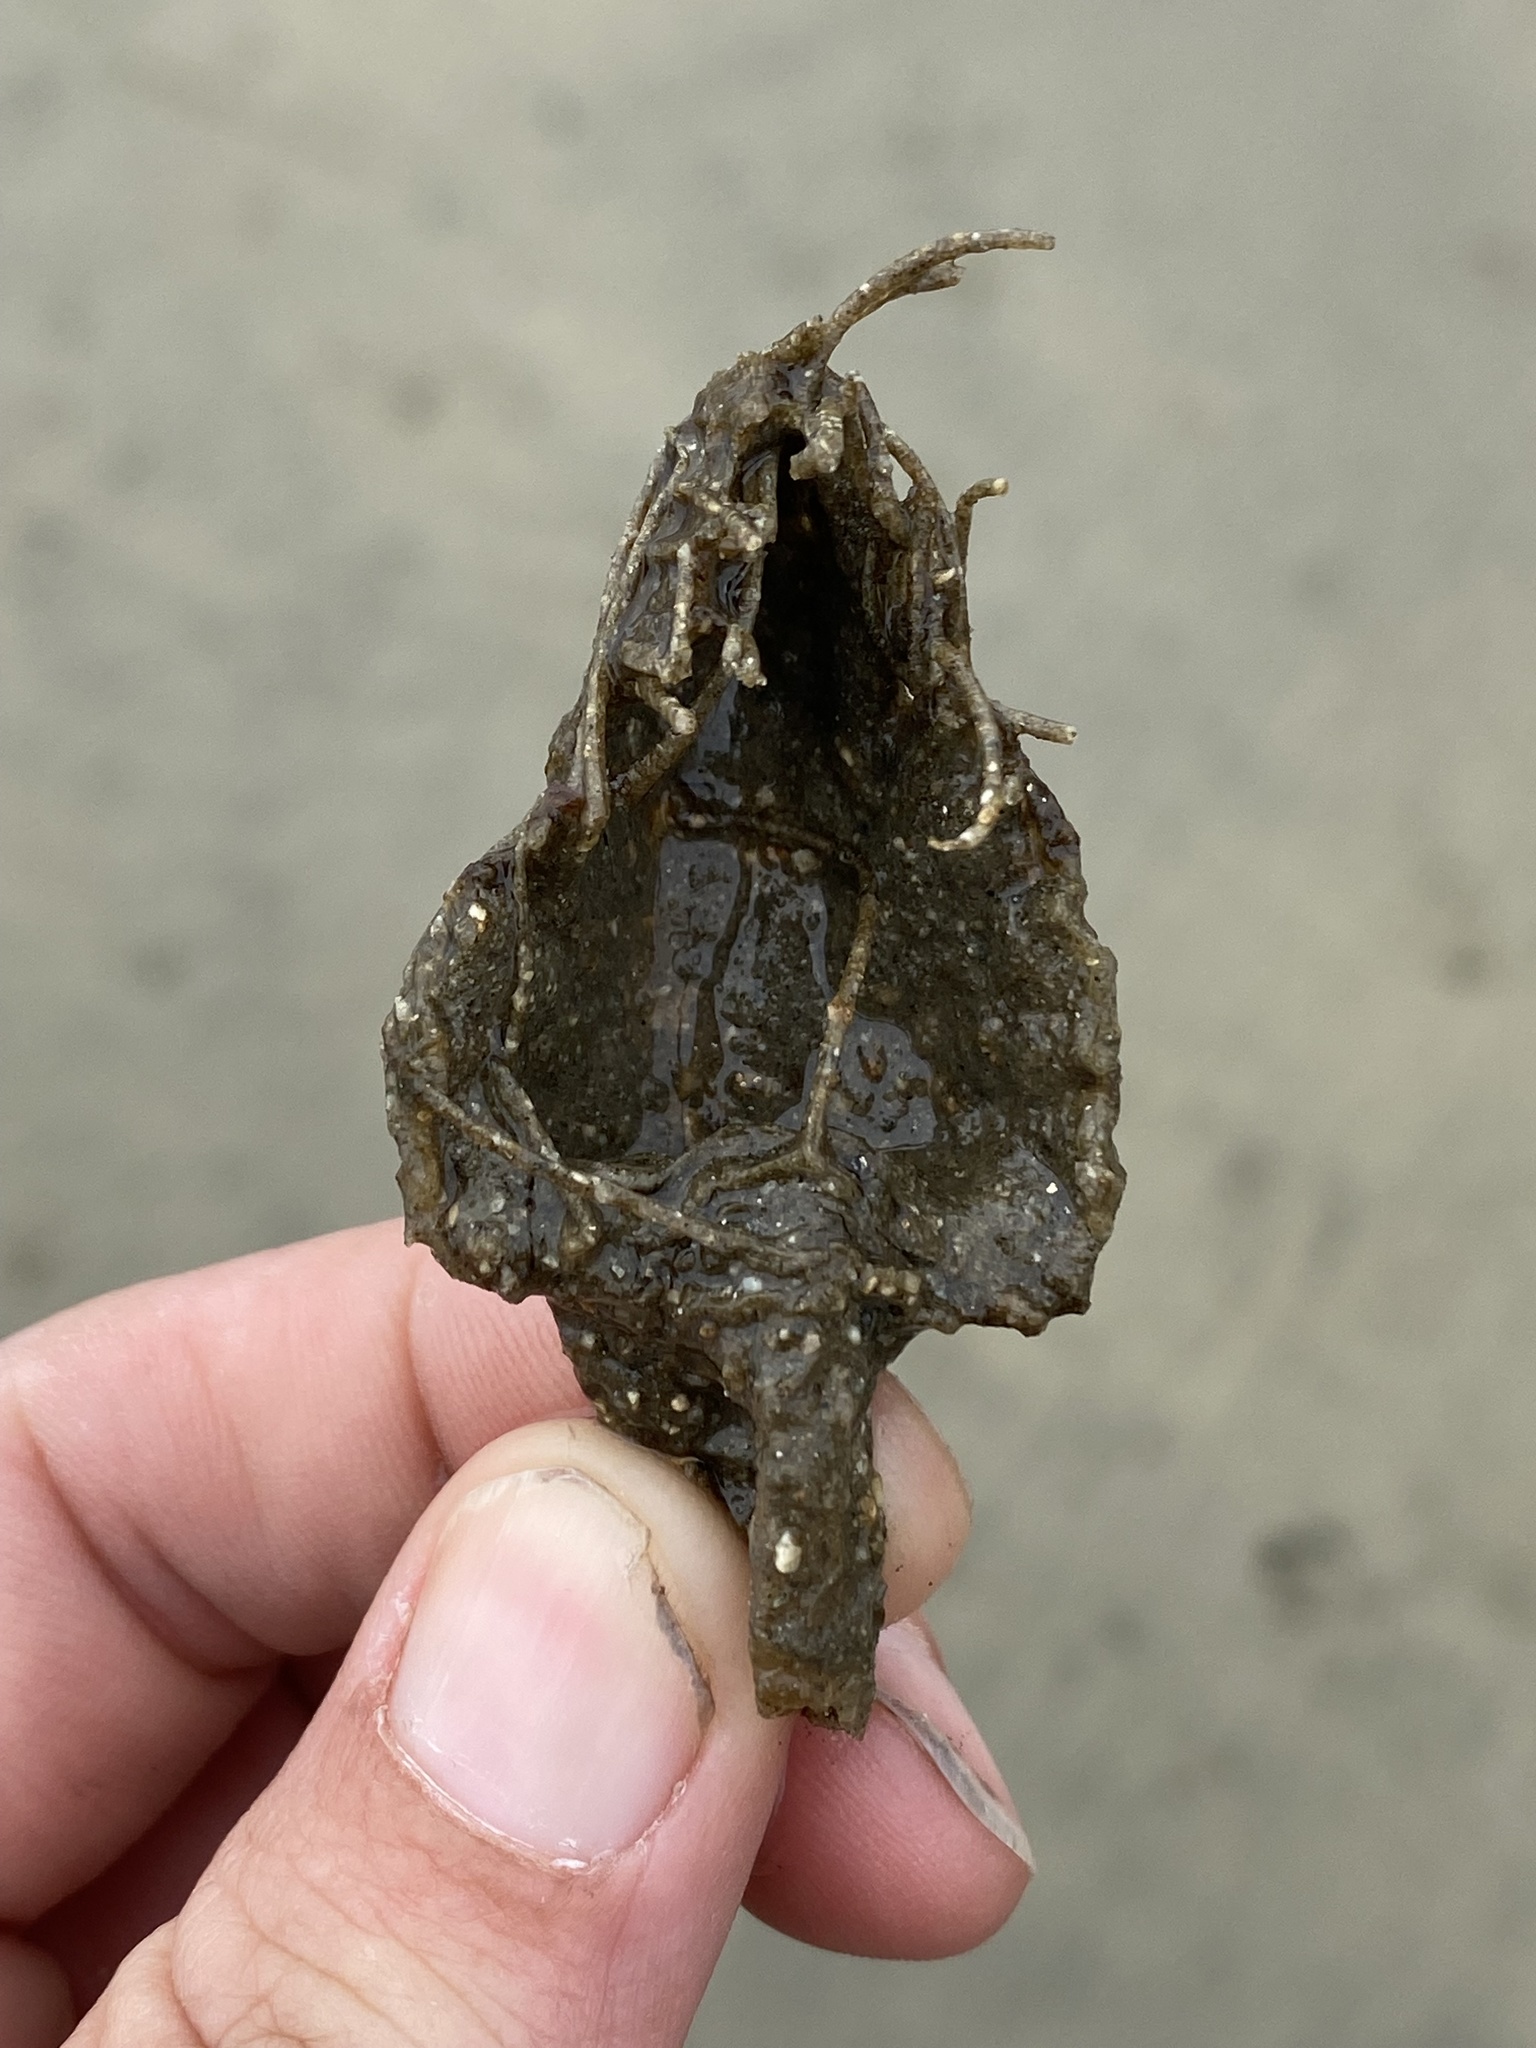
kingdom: Animalia
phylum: Annelida
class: Polychaeta
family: Terebellidae
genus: Pista
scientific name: Pista pacifica
